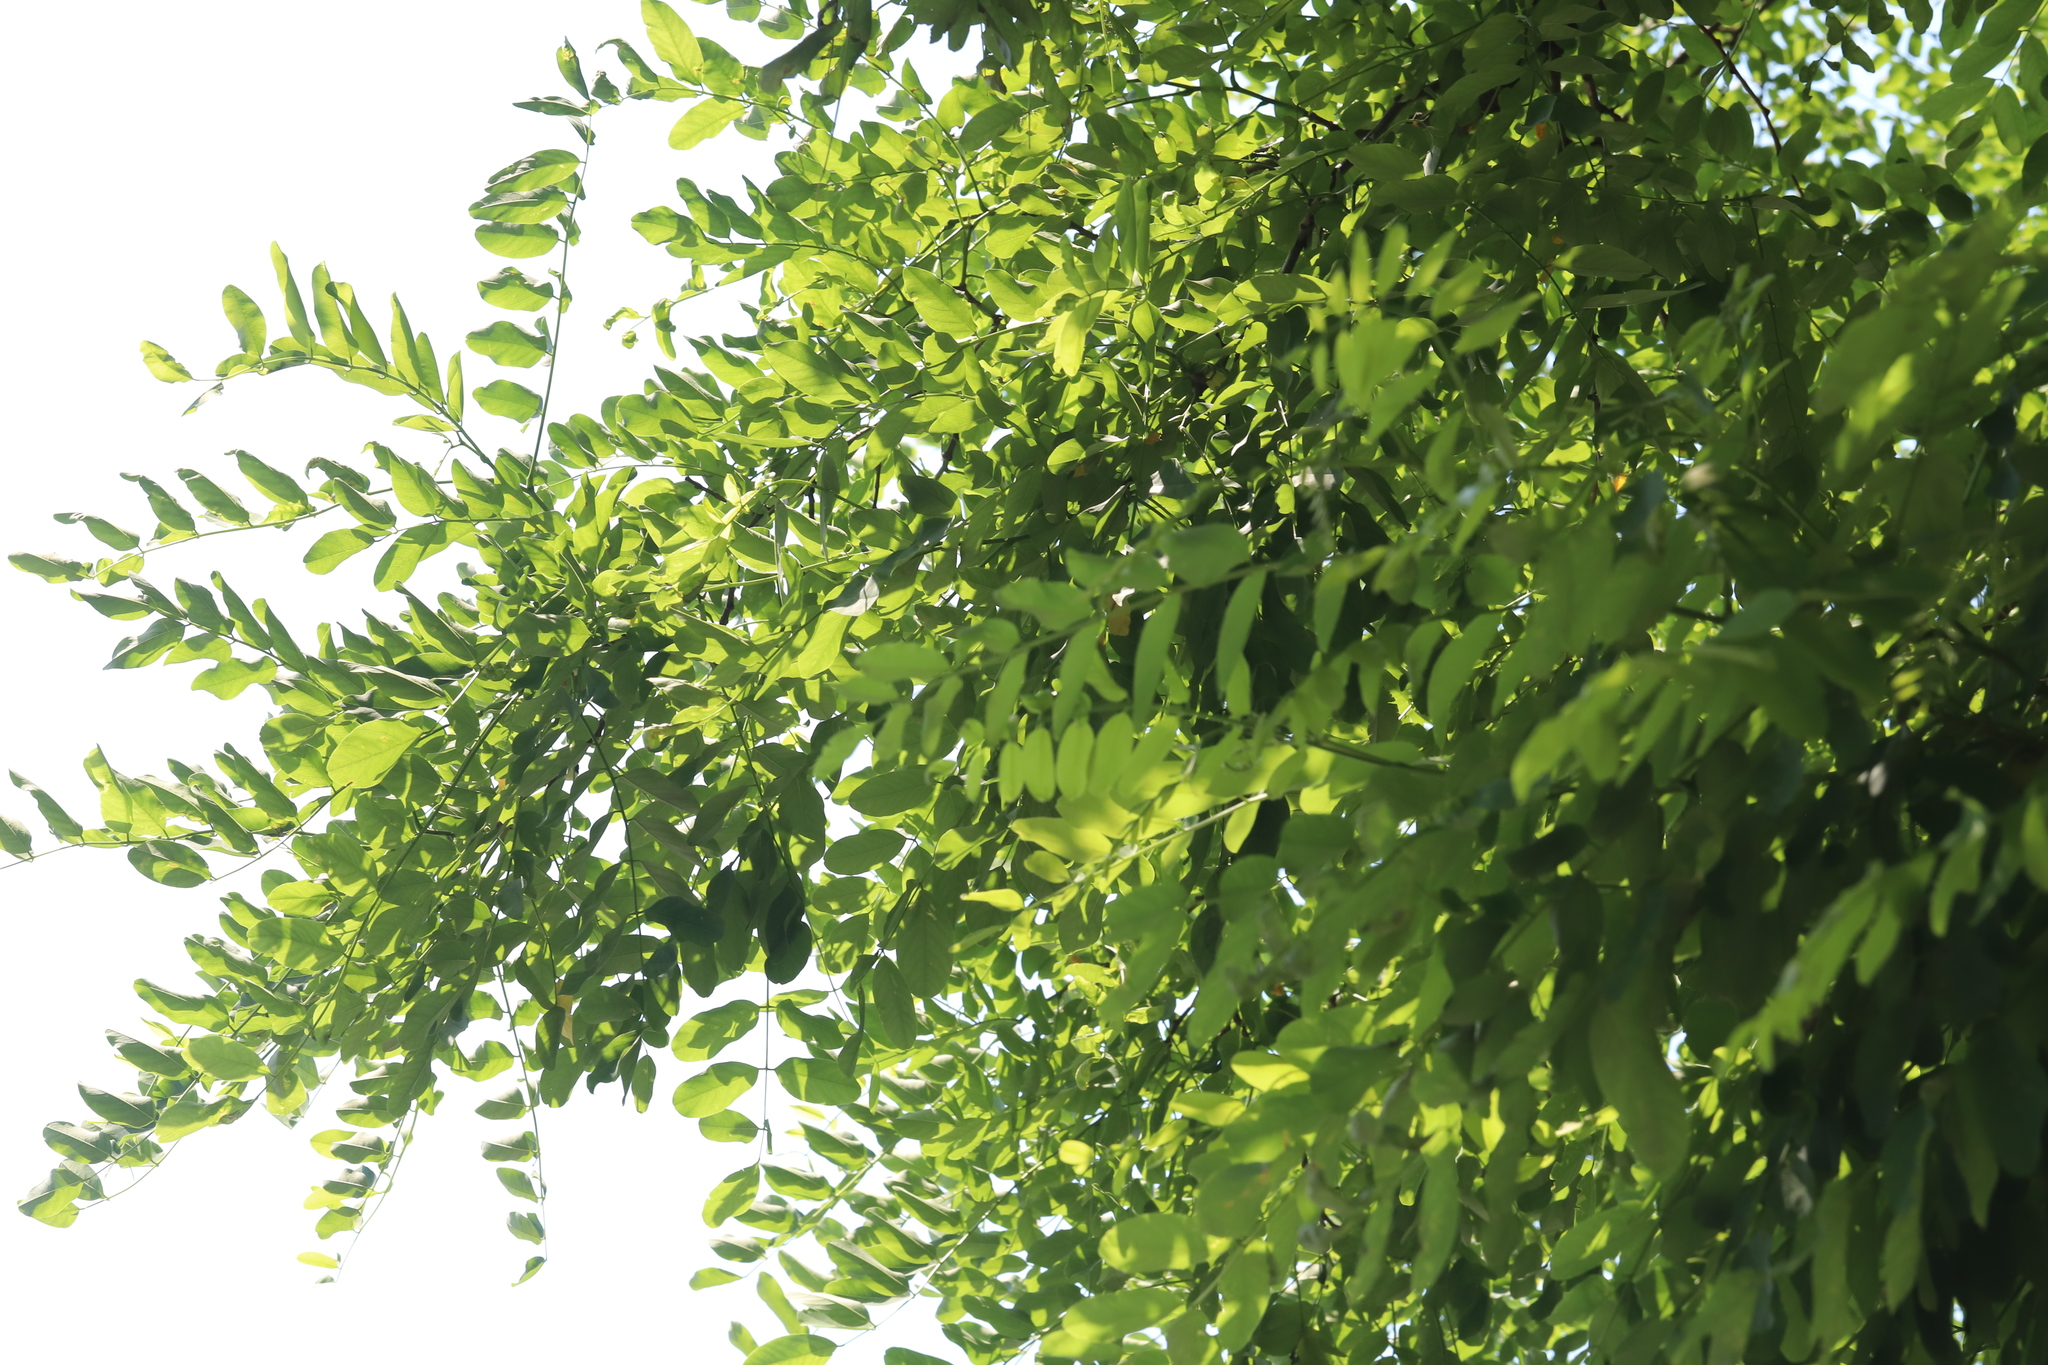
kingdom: Plantae
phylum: Tracheophyta
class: Magnoliopsida
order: Fabales
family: Fabaceae
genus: Robinia
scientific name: Robinia pseudoacacia
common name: Black locust
